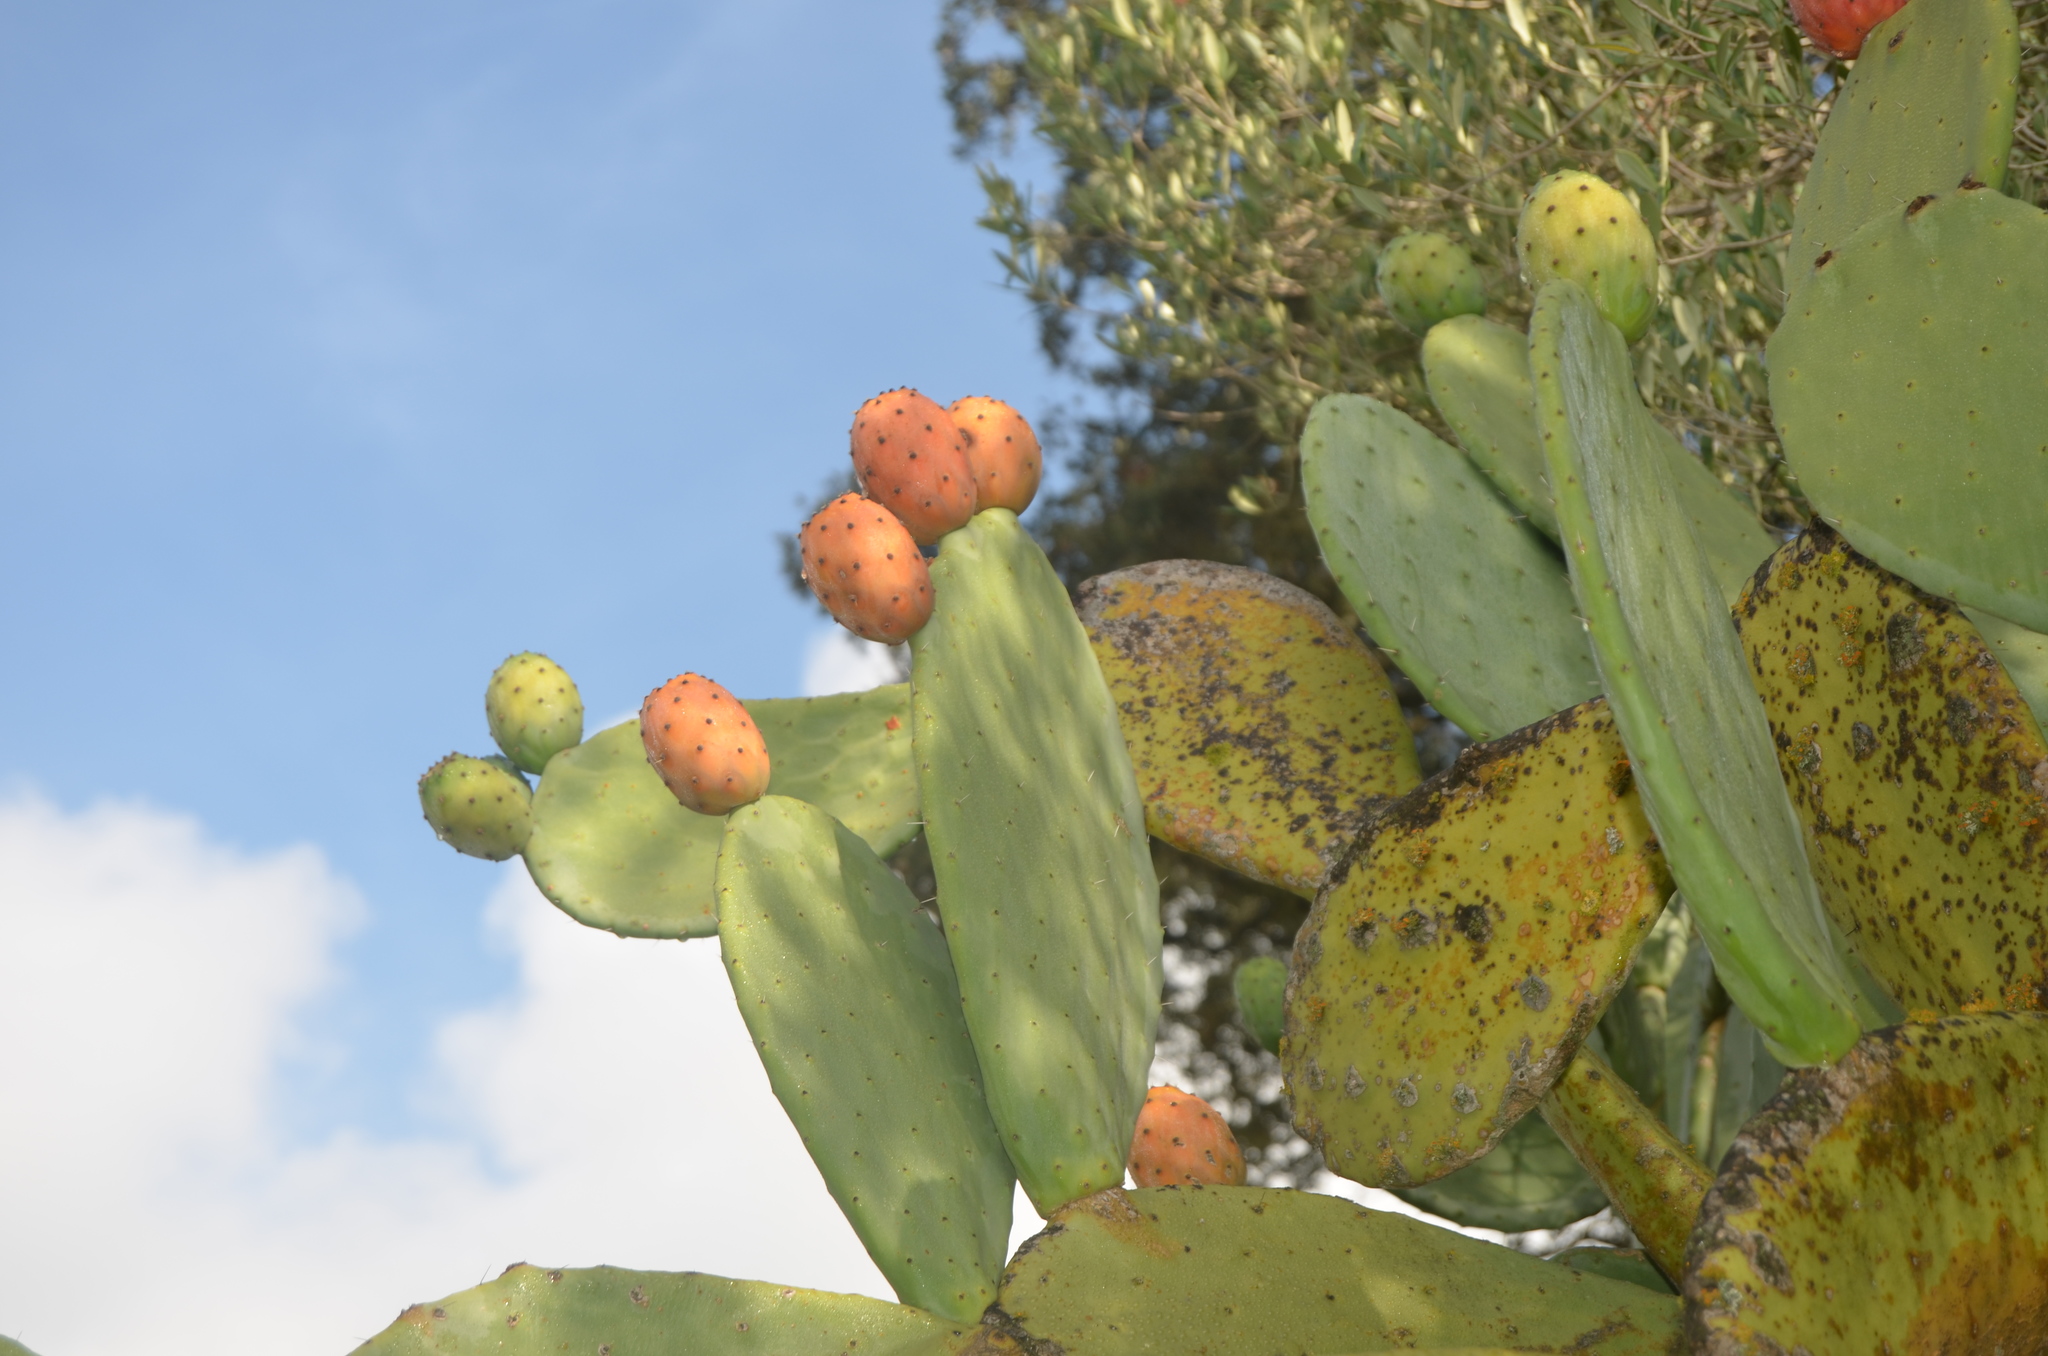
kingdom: Plantae
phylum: Tracheophyta
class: Magnoliopsida
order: Caryophyllales
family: Cactaceae
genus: Opuntia
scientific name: Opuntia ficus-indica
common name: Barbary fig
